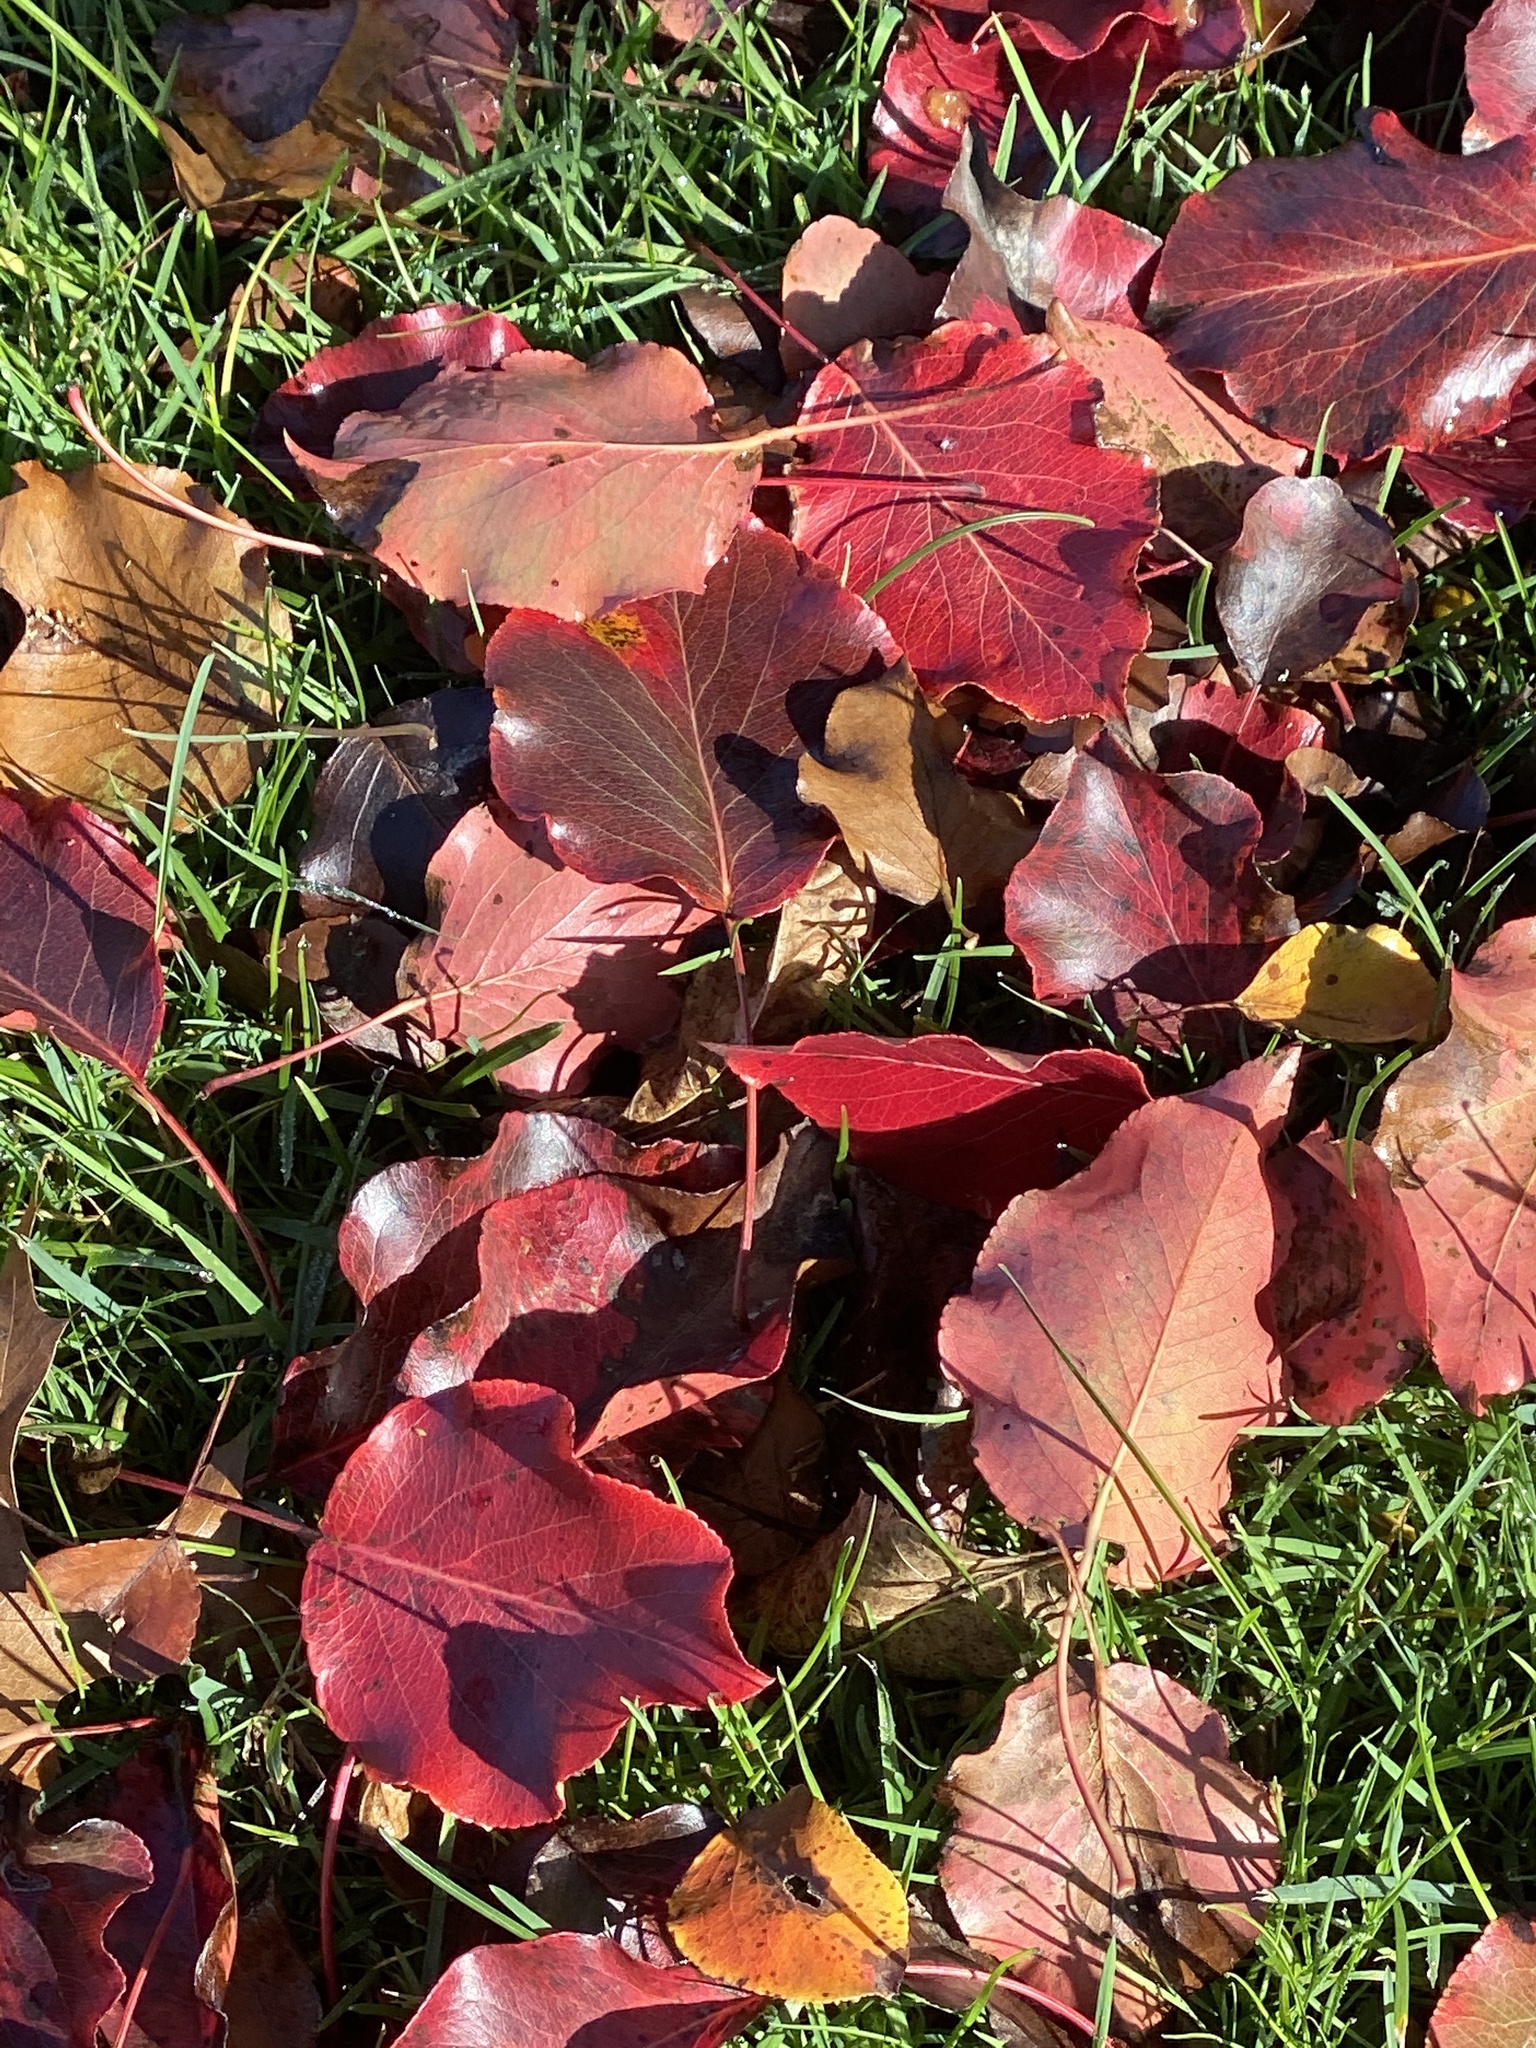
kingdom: Plantae
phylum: Tracheophyta
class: Magnoliopsida
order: Rosales
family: Rosaceae
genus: Pyrus
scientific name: Pyrus calleryana
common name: Callery pear
